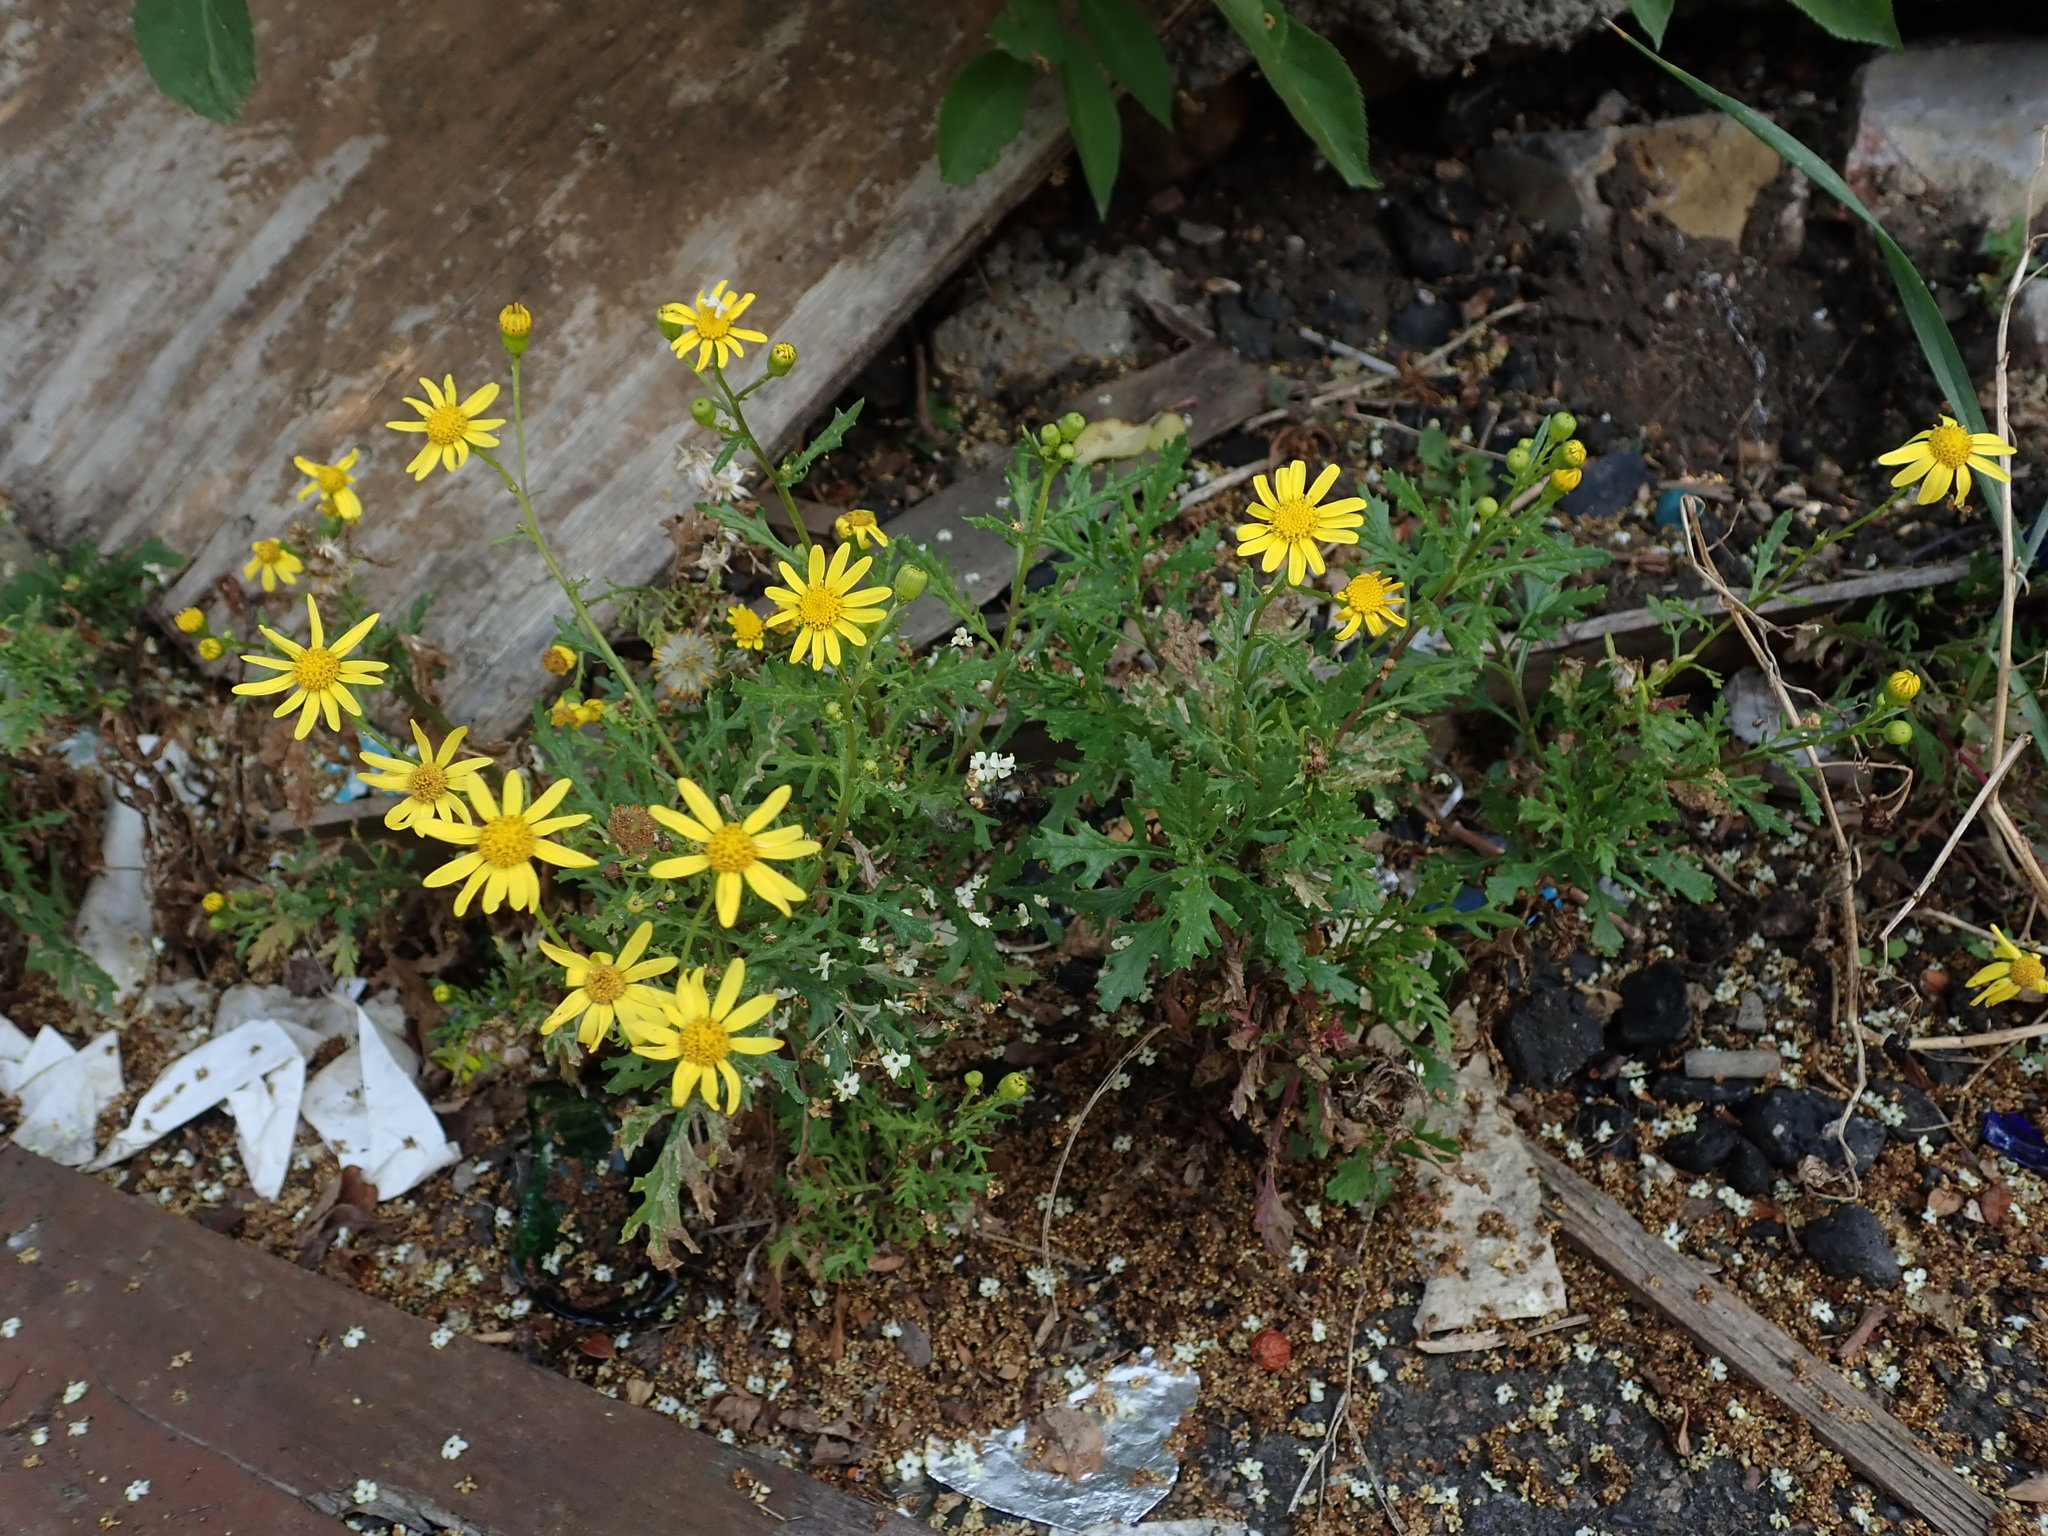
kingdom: Plantae
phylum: Tracheophyta
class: Magnoliopsida
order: Asterales
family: Asteraceae
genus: Senecio
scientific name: Senecio squalidus
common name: Oxford ragwort
